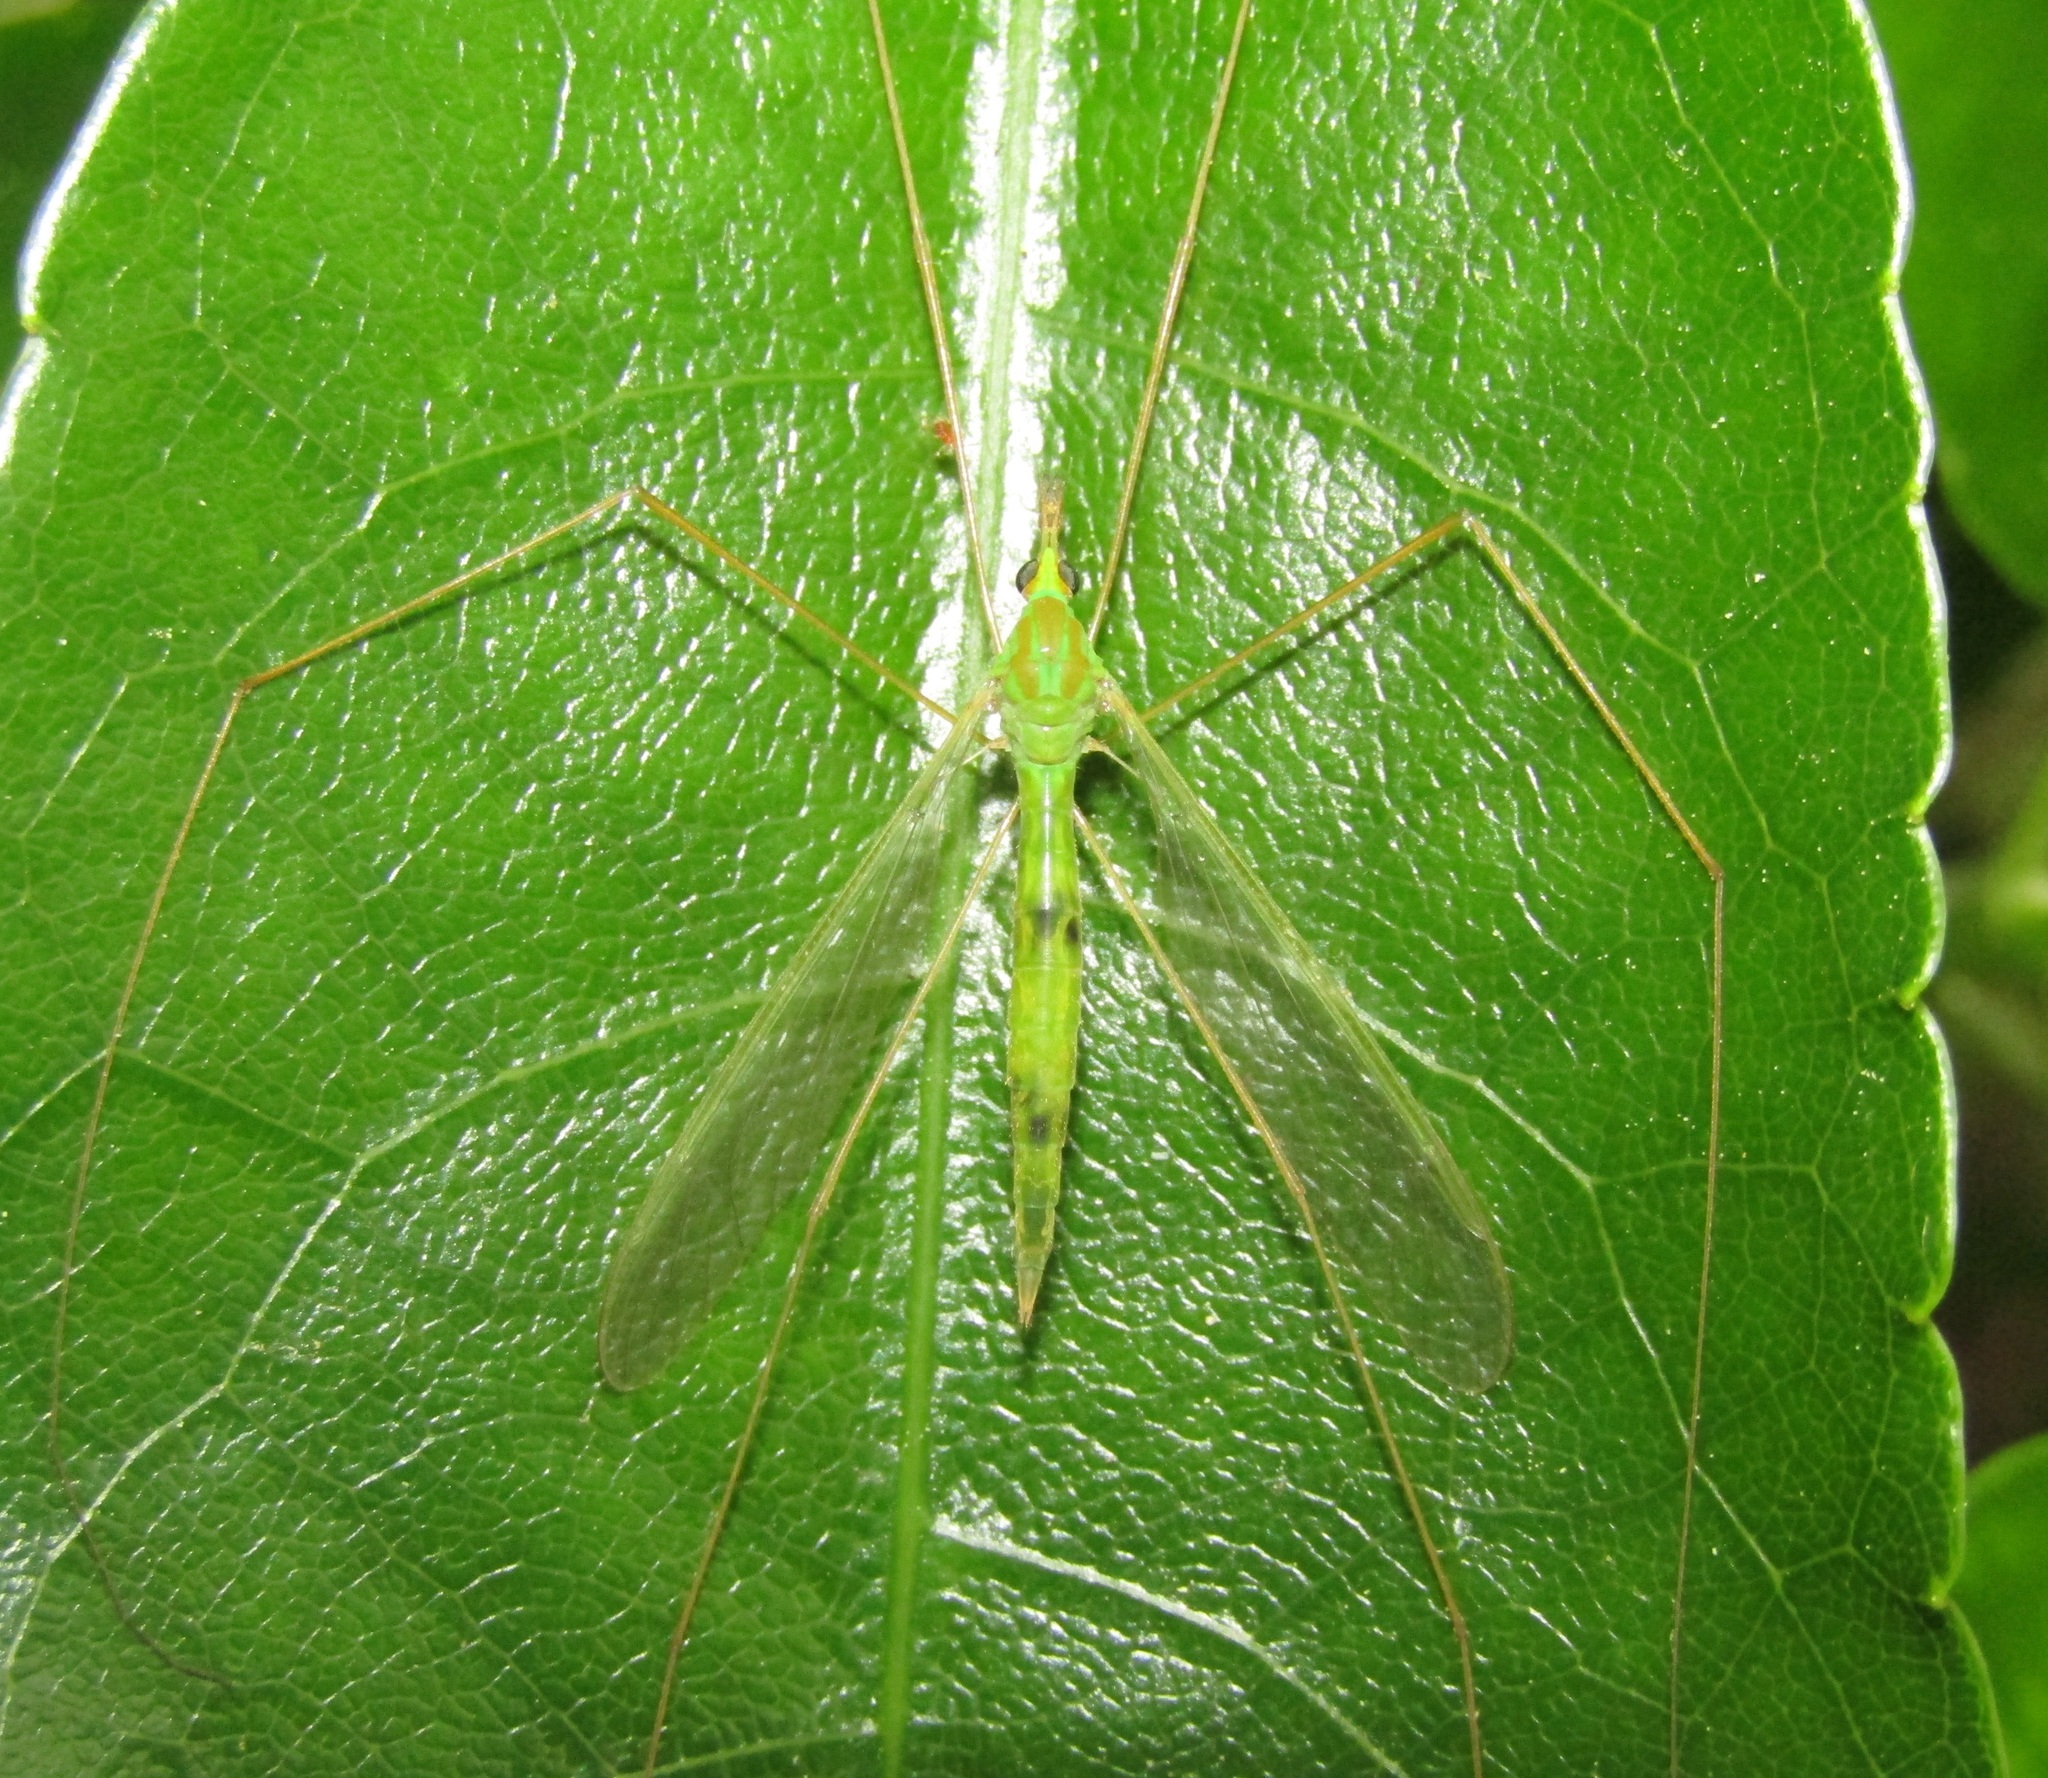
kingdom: Animalia
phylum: Arthropoda
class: Insecta
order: Diptera
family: Tipulidae
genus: Leptotarsus
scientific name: Leptotarsus virescens
